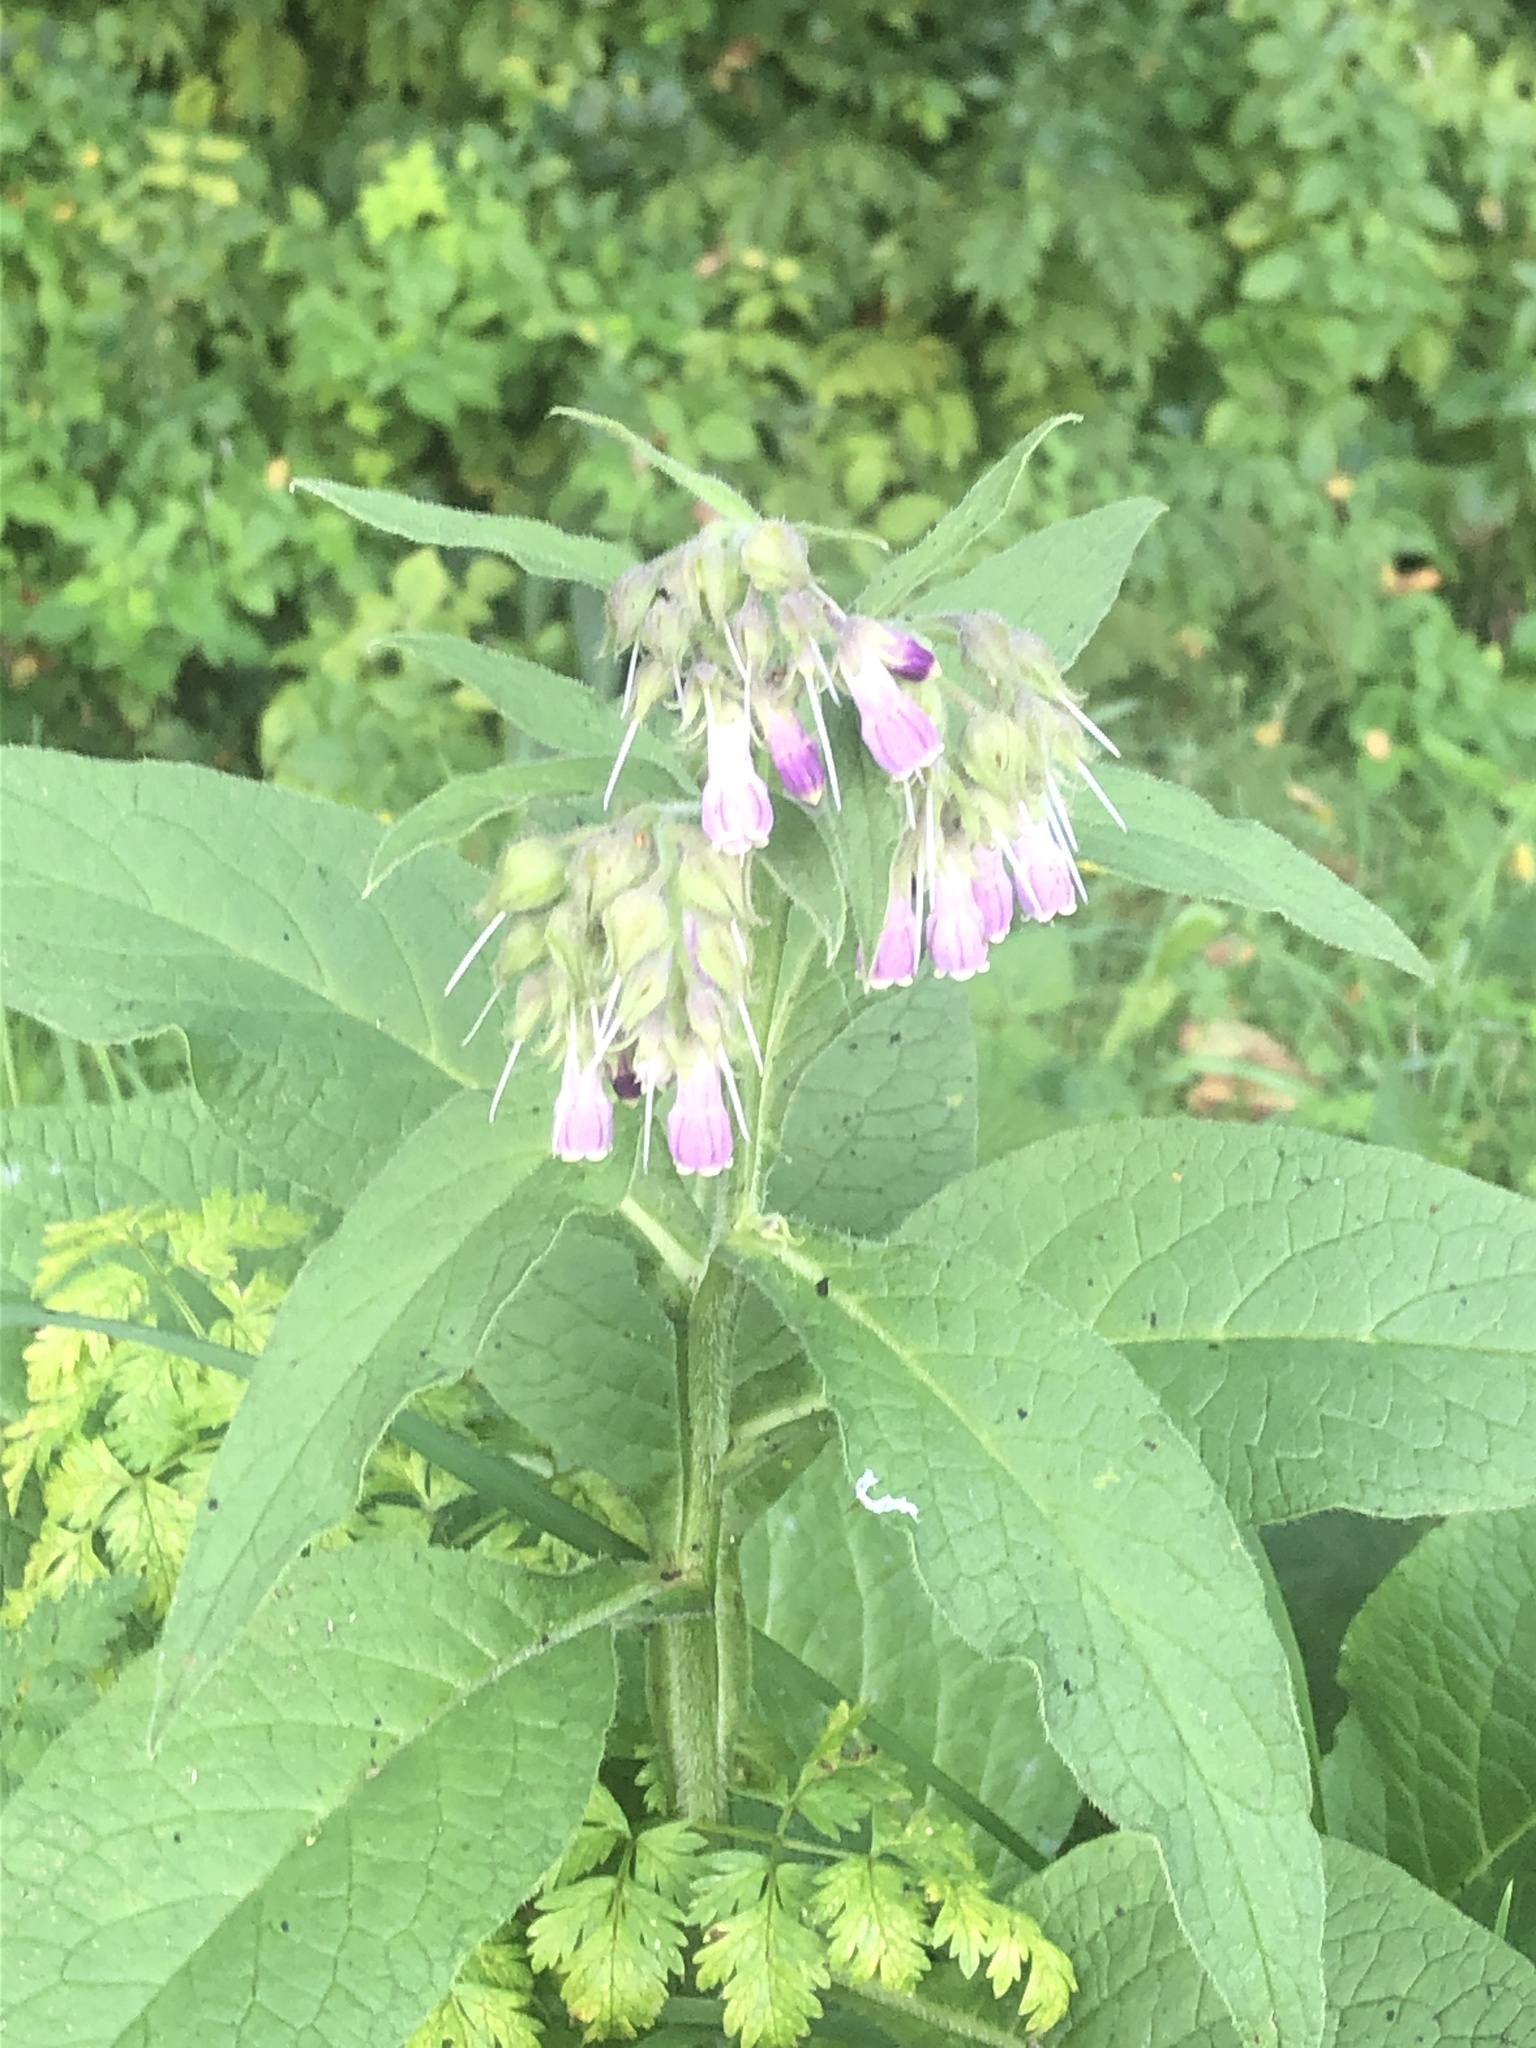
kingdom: Plantae
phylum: Tracheophyta
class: Magnoliopsida
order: Boraginales
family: Boraginaceae
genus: Symphytum
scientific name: Symphytum officinale
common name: Common comfrey
